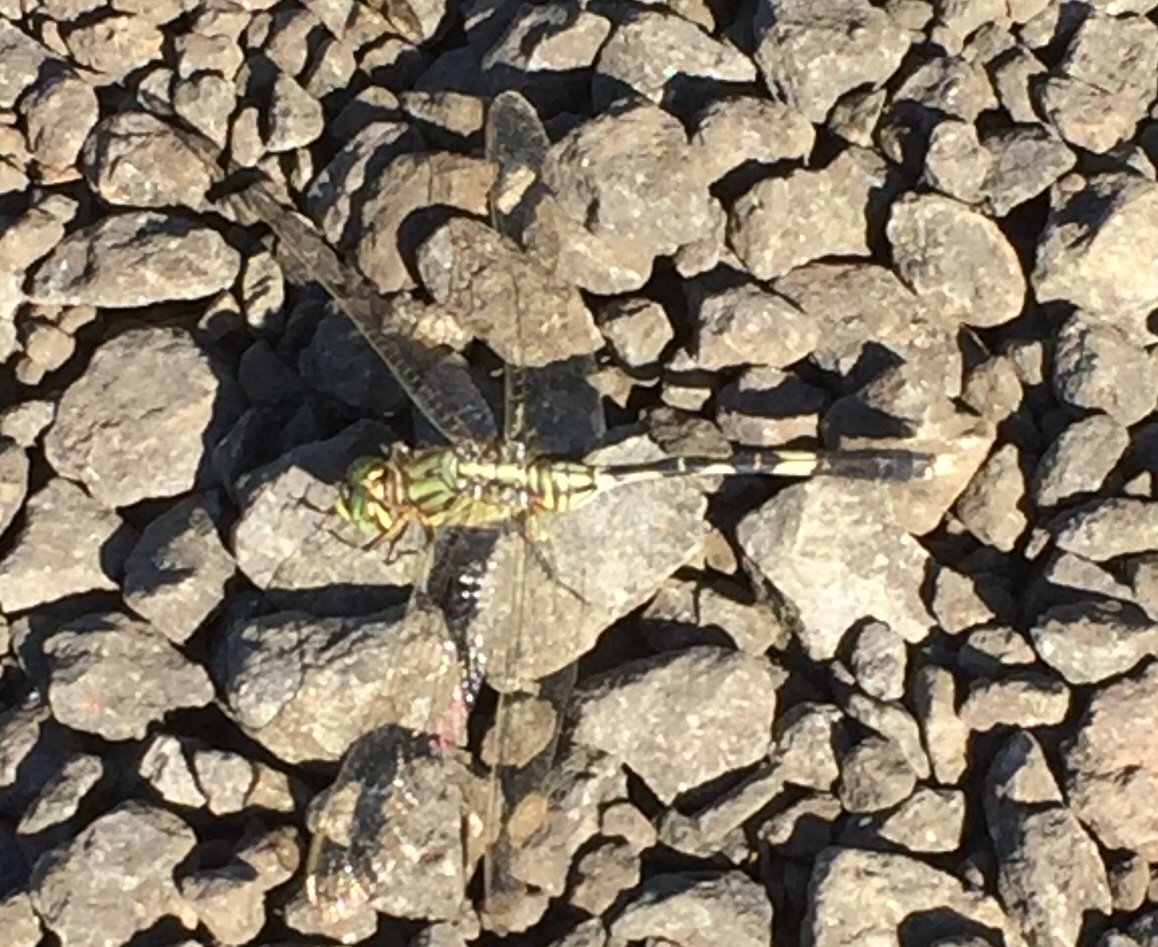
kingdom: Animalia
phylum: Arthropoda
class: Insecta
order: Odonata
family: Libellulidae
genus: Orthetrum
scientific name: Orthetrum sabina
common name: Slender skimmer
